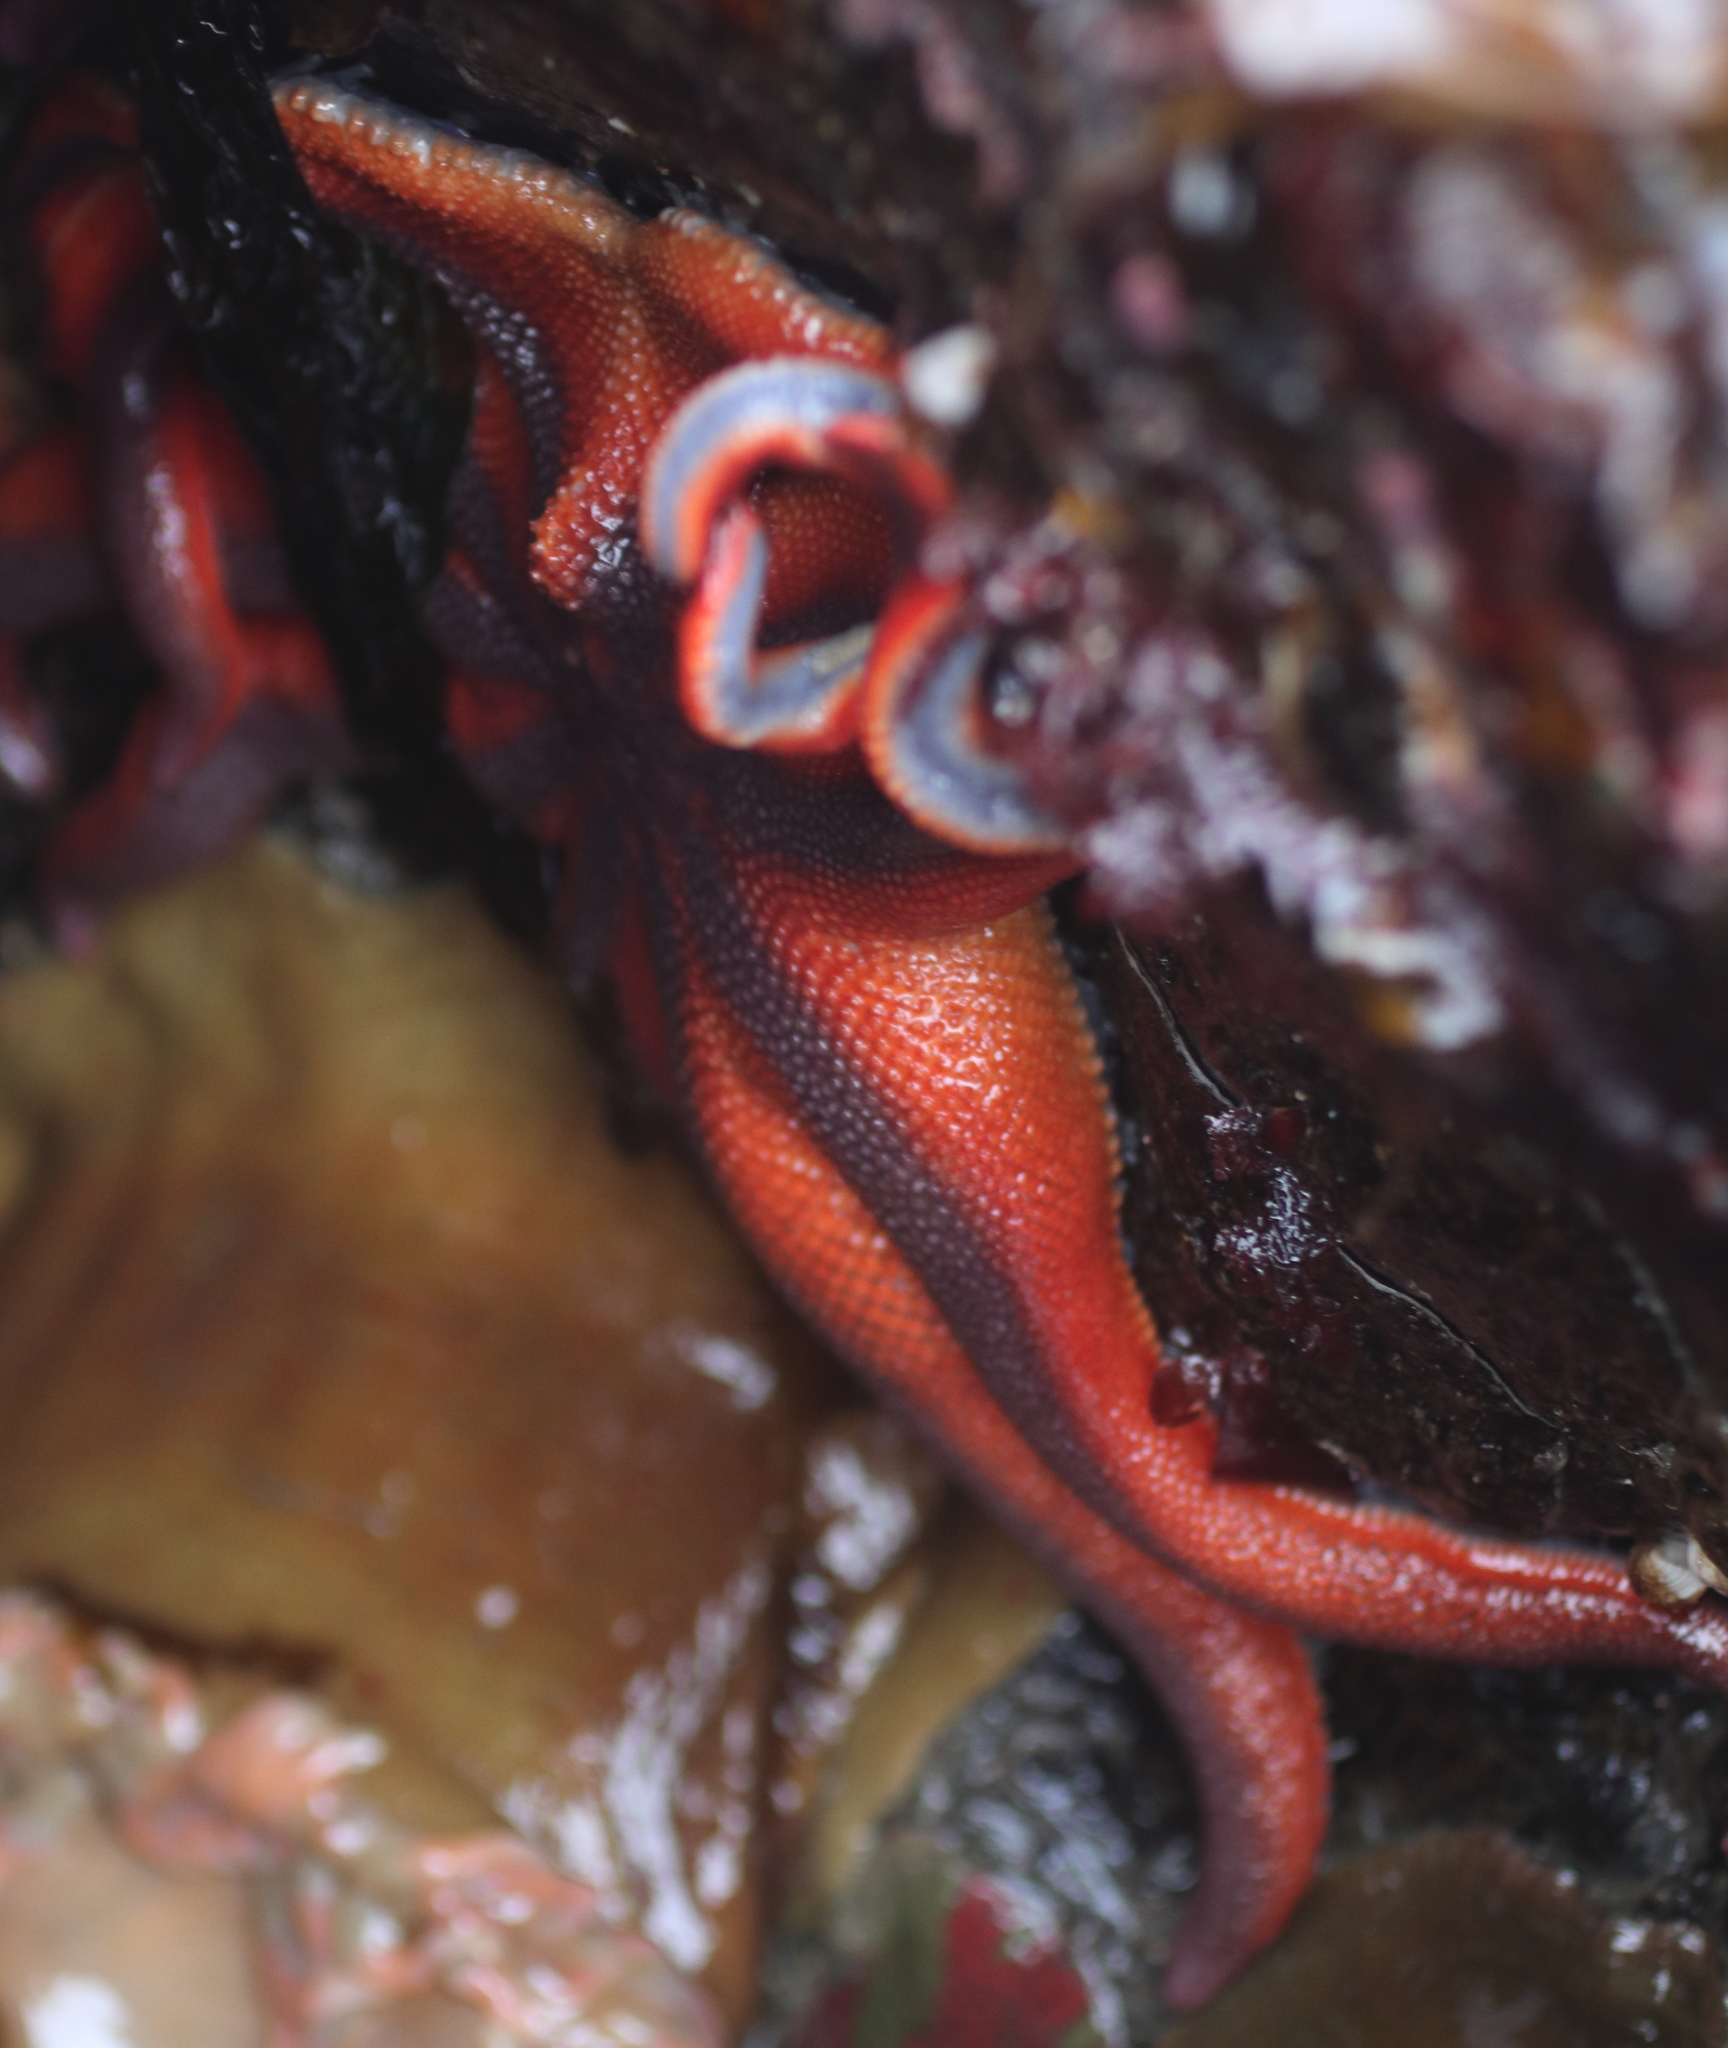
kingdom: Animalia
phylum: Echinodermata
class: Asteroidea
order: Valvatida
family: Solasteridae
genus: Solaster
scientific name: Solaster stimpsoni
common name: Orange sun star
